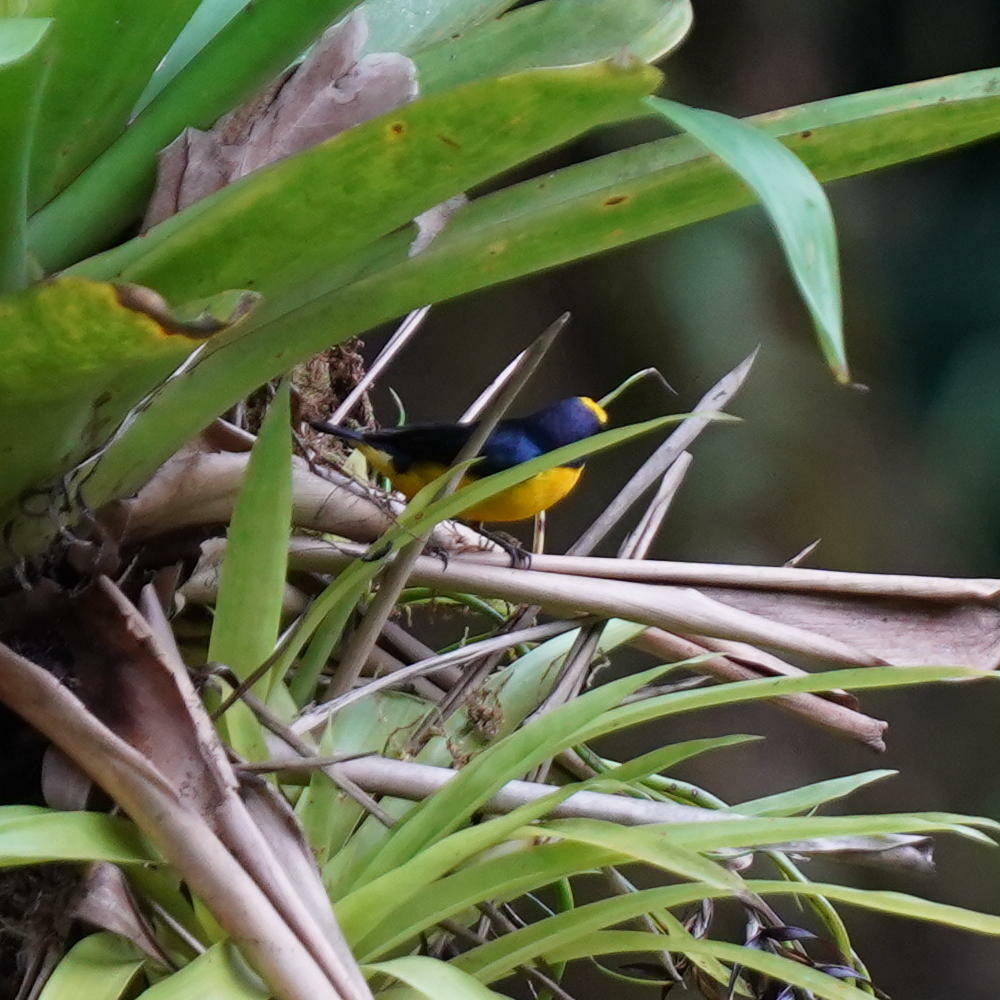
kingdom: Animalia
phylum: Chordata
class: Aves
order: Passeriformes
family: Fringillidae
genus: Euphonia
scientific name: Euphonia laniirostris
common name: Thick-billed euphonia
